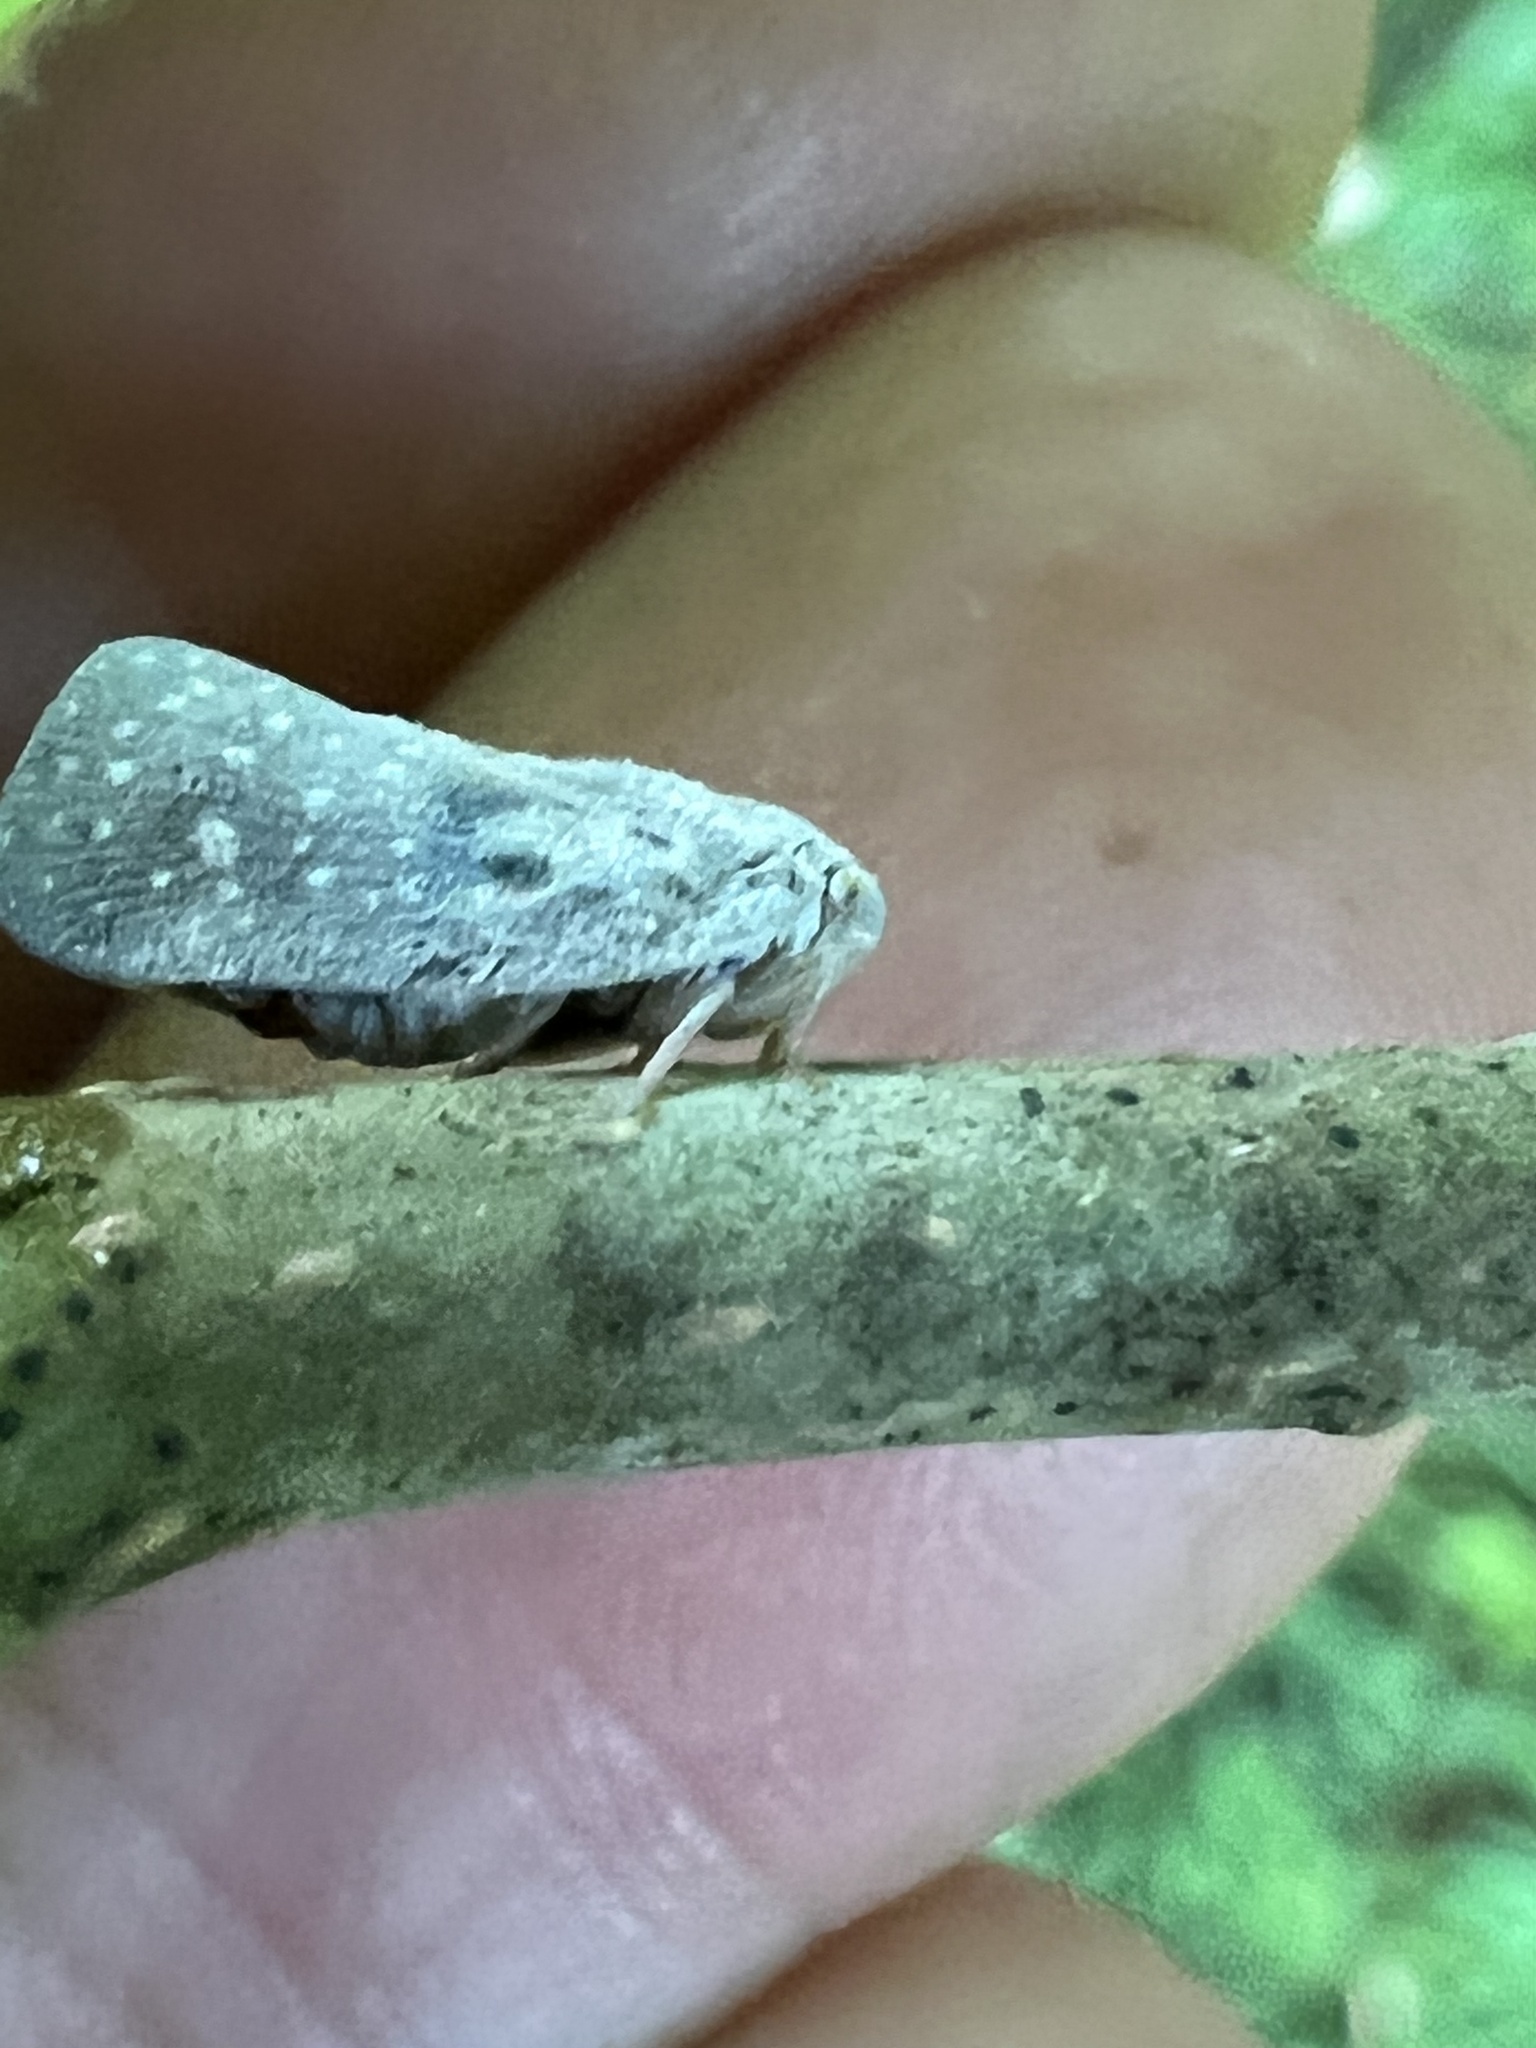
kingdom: Animalia
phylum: Arthropoda
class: Insecta
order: Hemiptera
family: Flatidae
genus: Metcalfa
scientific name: Metcalfa pruinosa
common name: Citrus flatid planthopper
